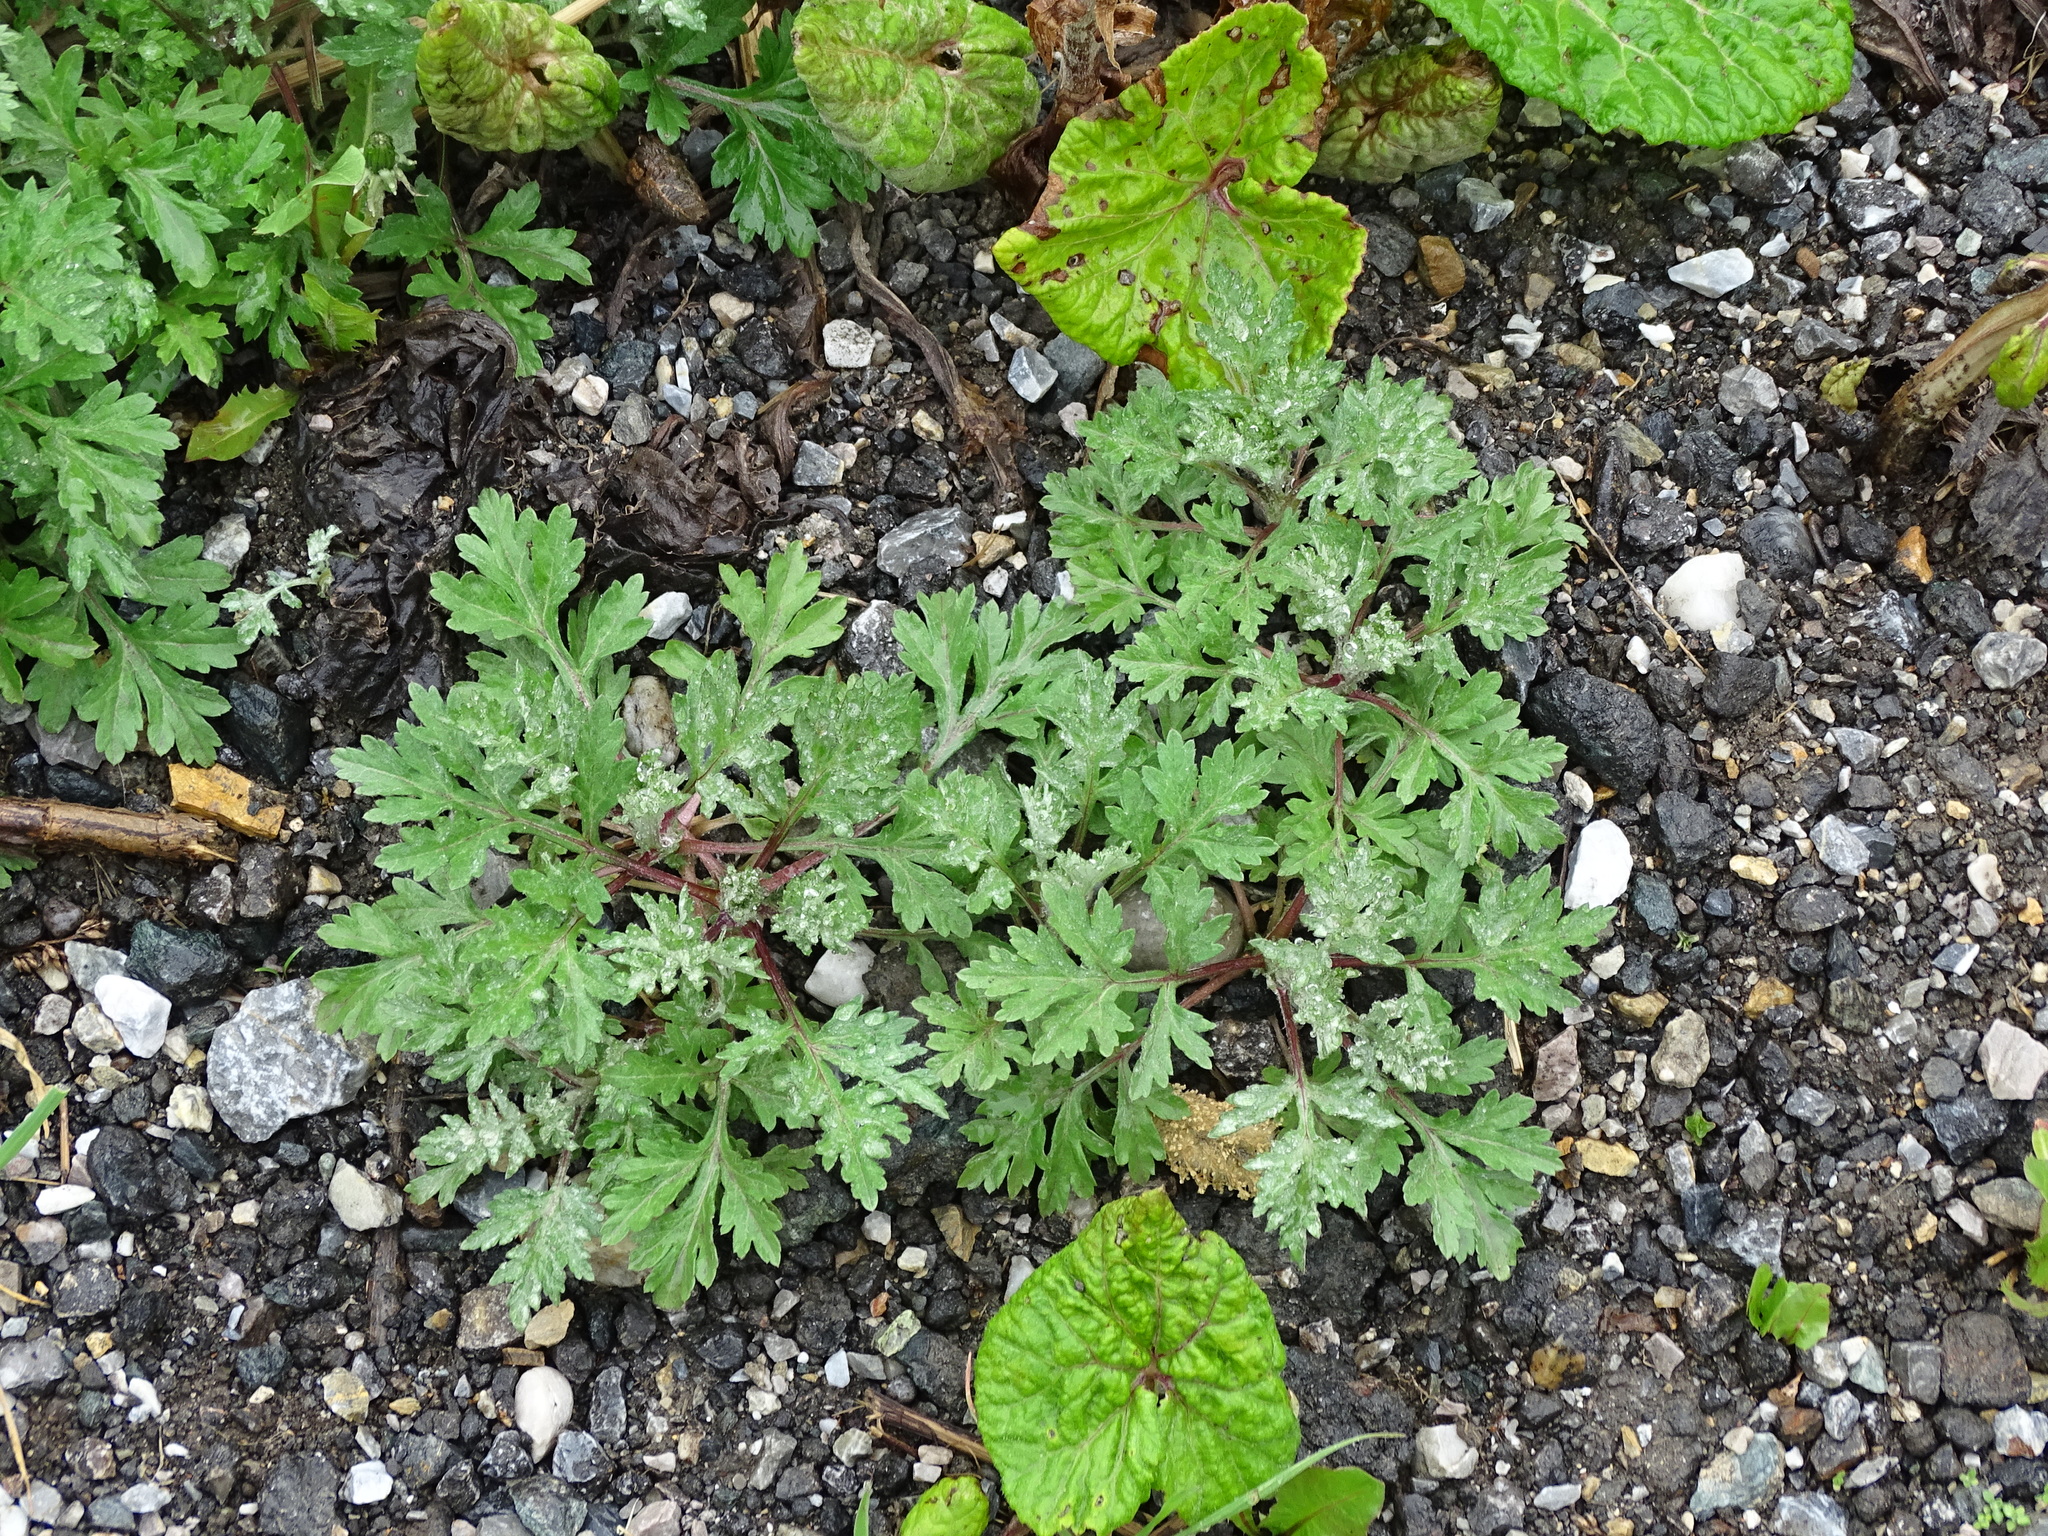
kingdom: Plantae
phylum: Tracheophyta
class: Magnoliopsida
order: Asterales
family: Asteraceae
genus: Artemisia
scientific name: Artemisia vulgaris
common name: Mugwort
